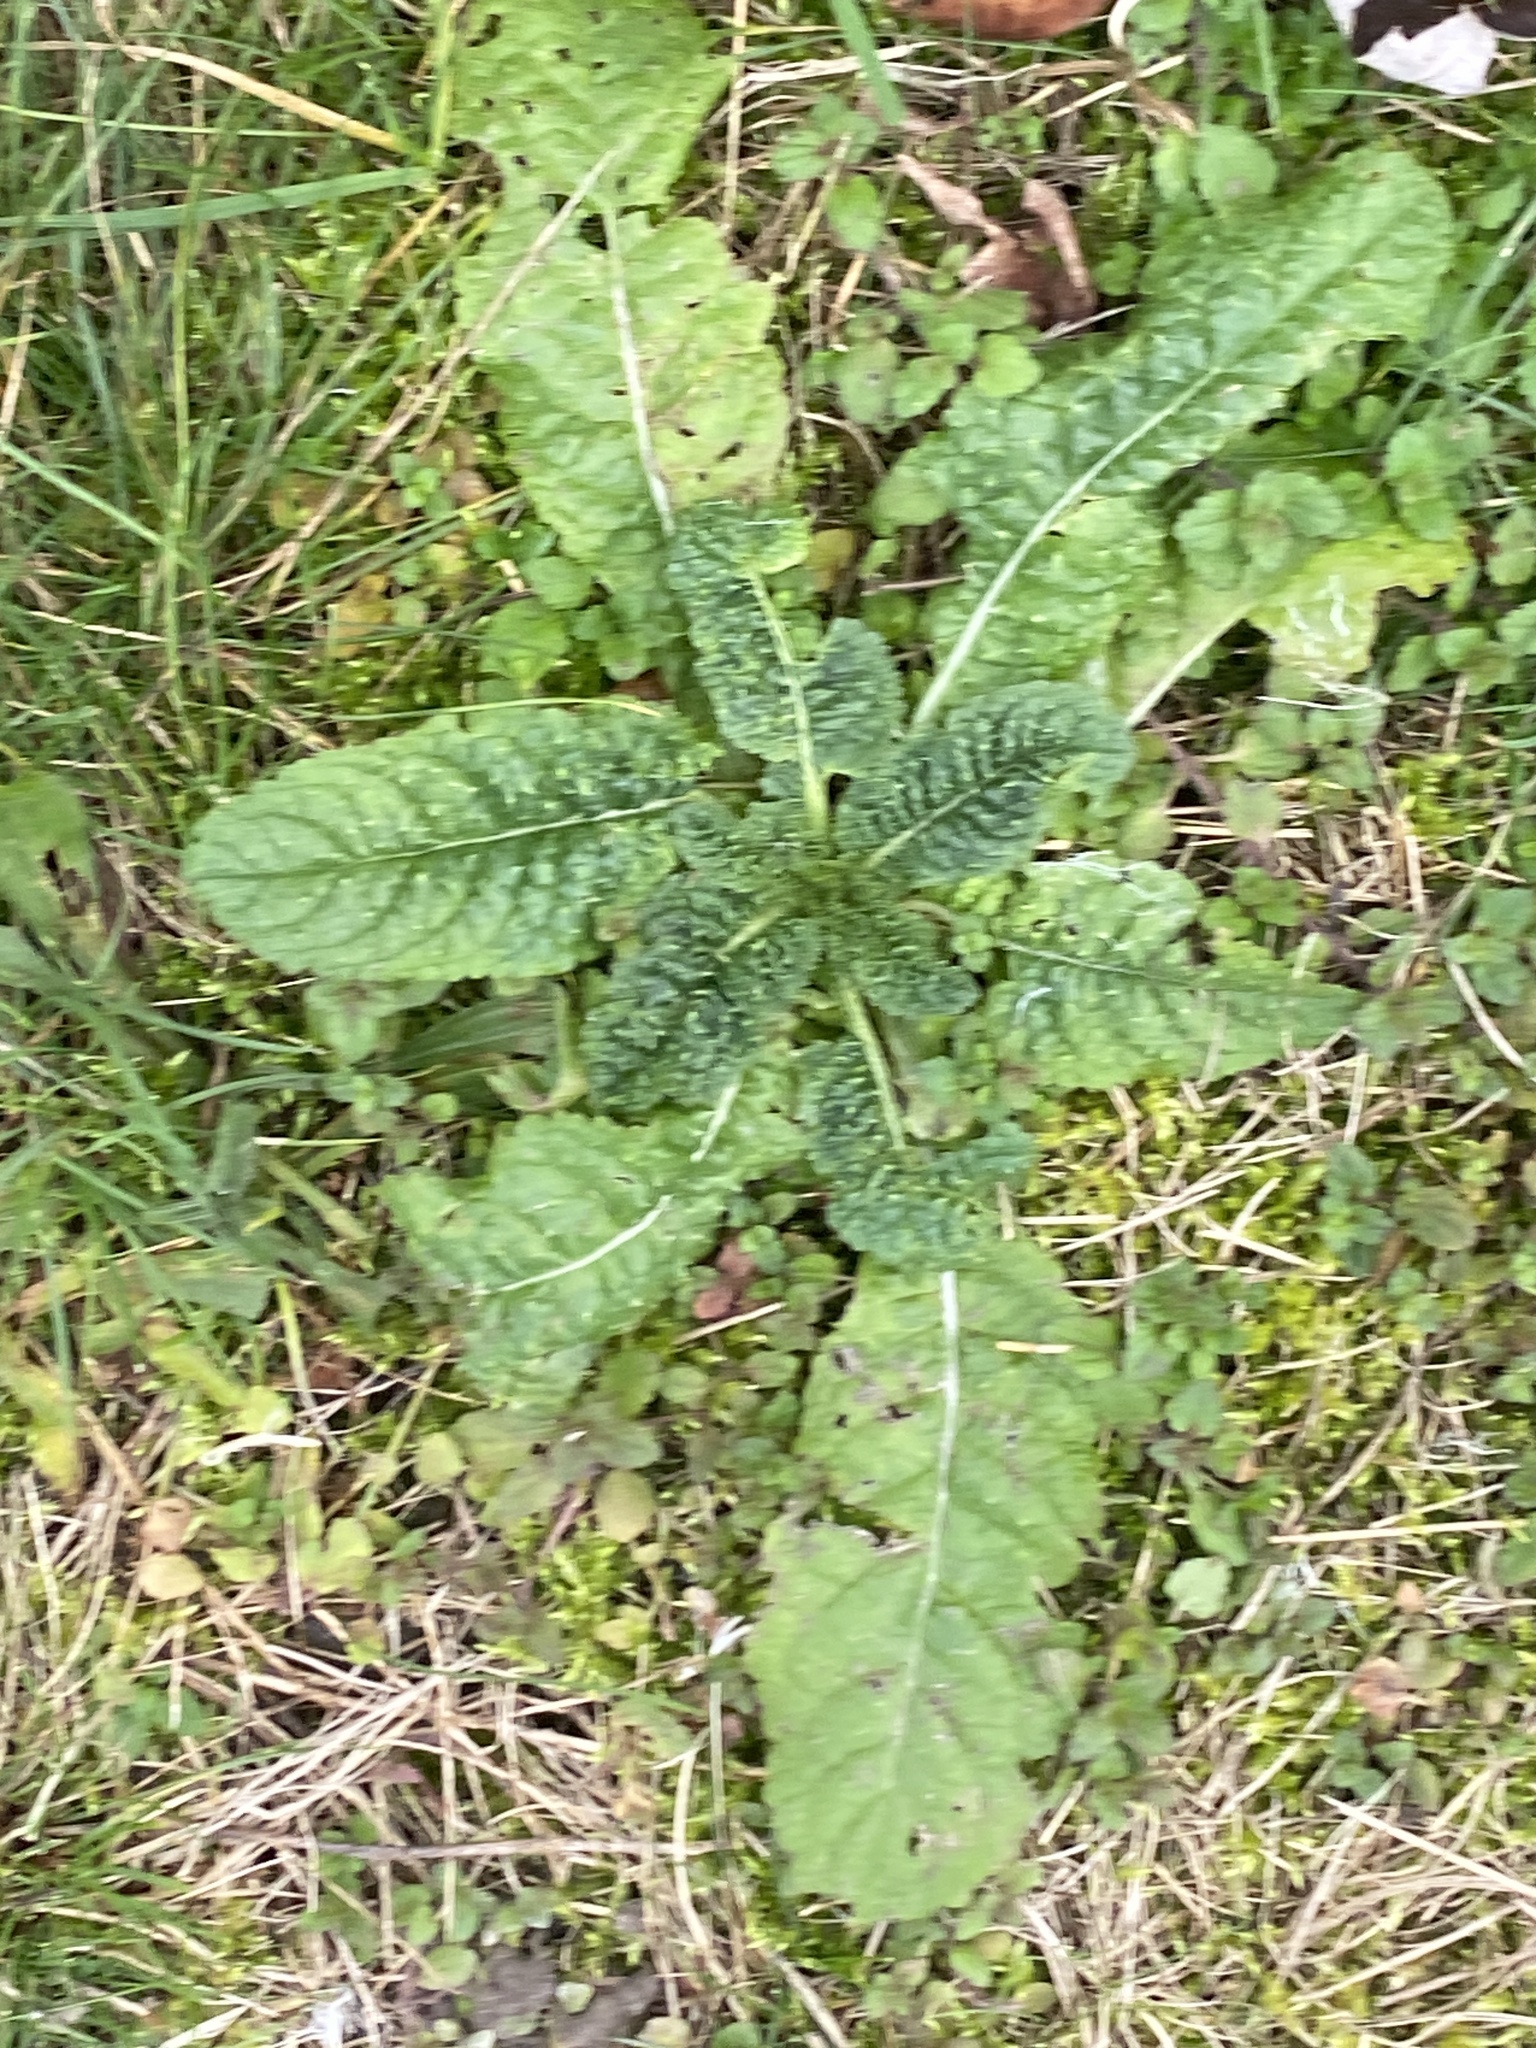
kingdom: Plantae
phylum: Tracheophyta
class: Magnoliopsida
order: Dipsacales
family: Caprifoliaceae
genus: Dipsacus
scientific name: Dipsacus fullonum
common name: Teasel
